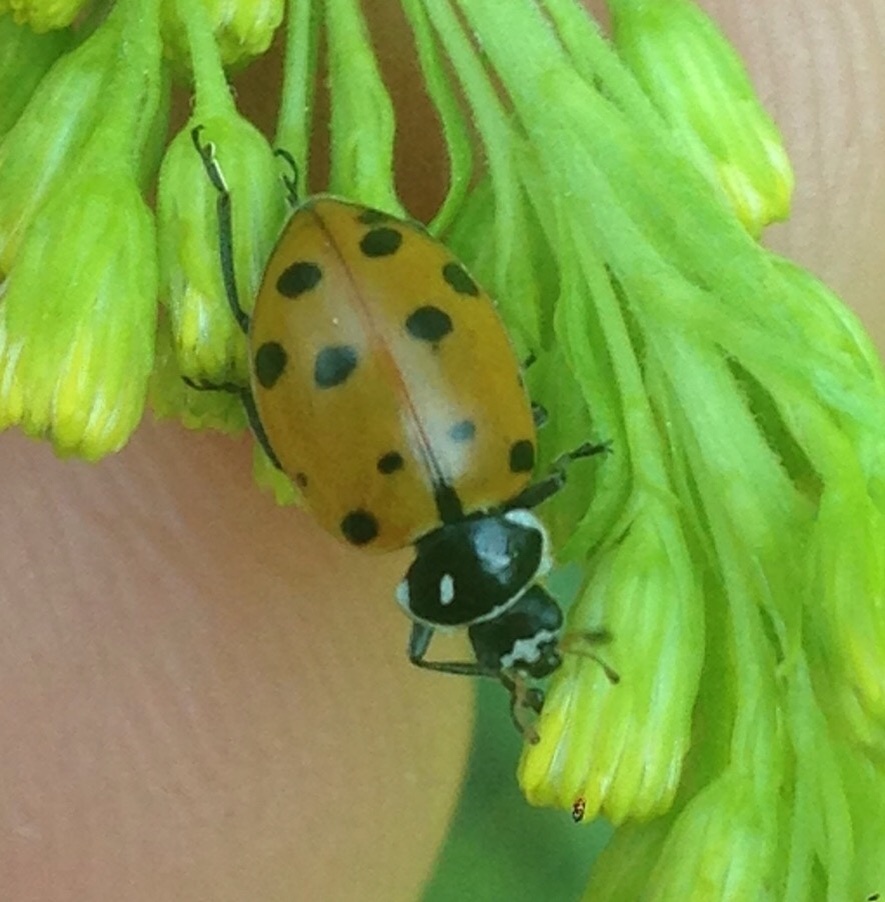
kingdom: Animalia
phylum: Arthropoda
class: Insecta
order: Coleoptera
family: Coccinellidae
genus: Hippodamia
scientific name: Hippodamia convergens
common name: Convergent lady beetle
